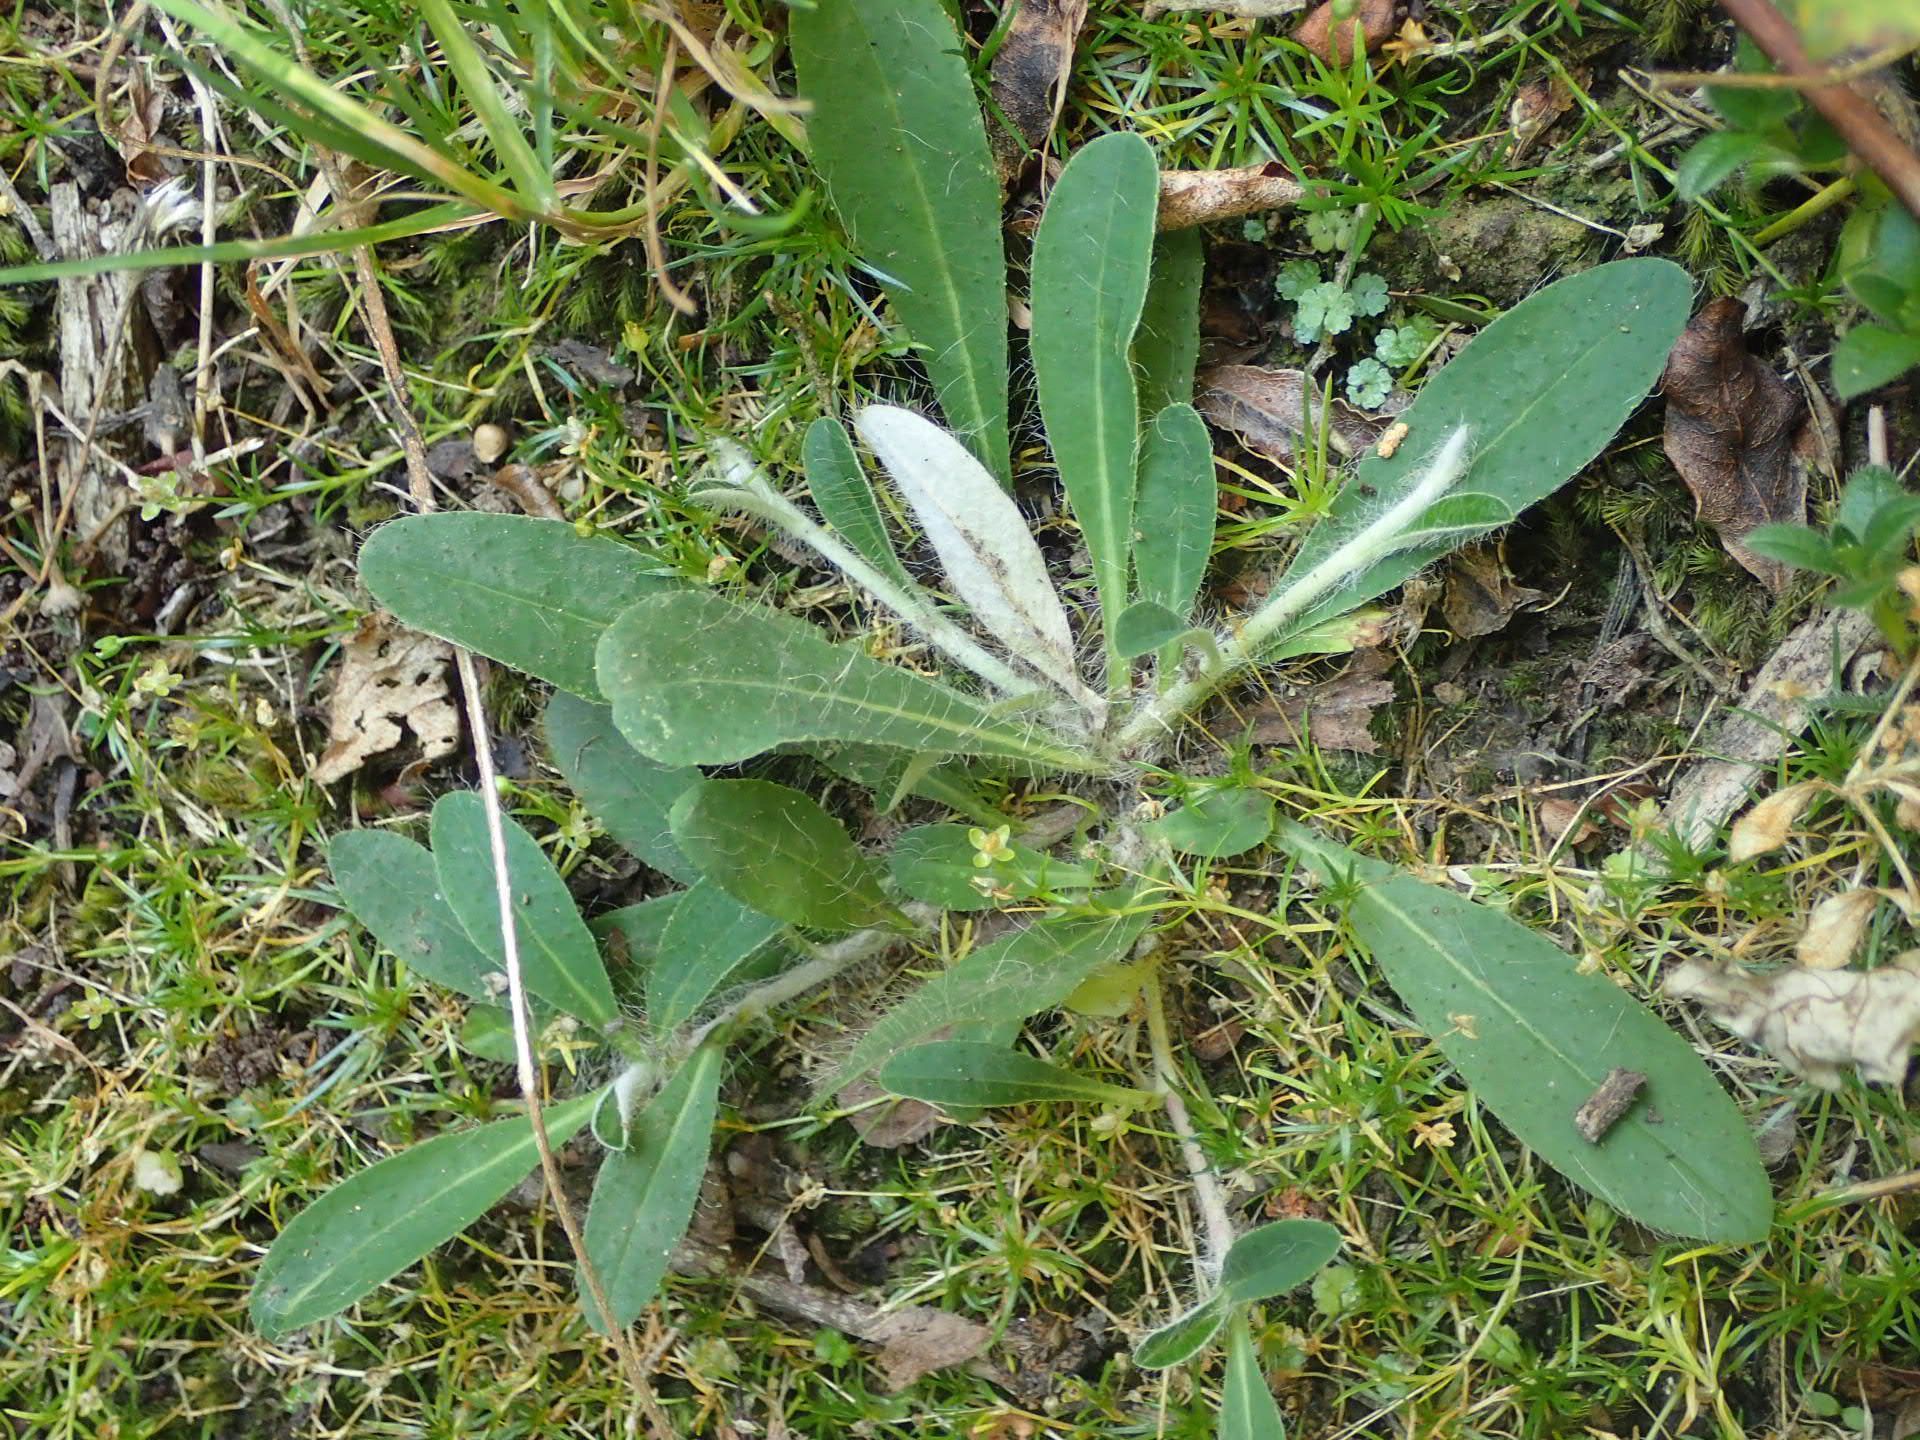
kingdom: Plantae
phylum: Tracheophyta
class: Magnoliopsida
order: Asterales
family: Asteraceae
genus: Pilosella
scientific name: Pilosella officinarum
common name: Mouse-ear hawkweed
